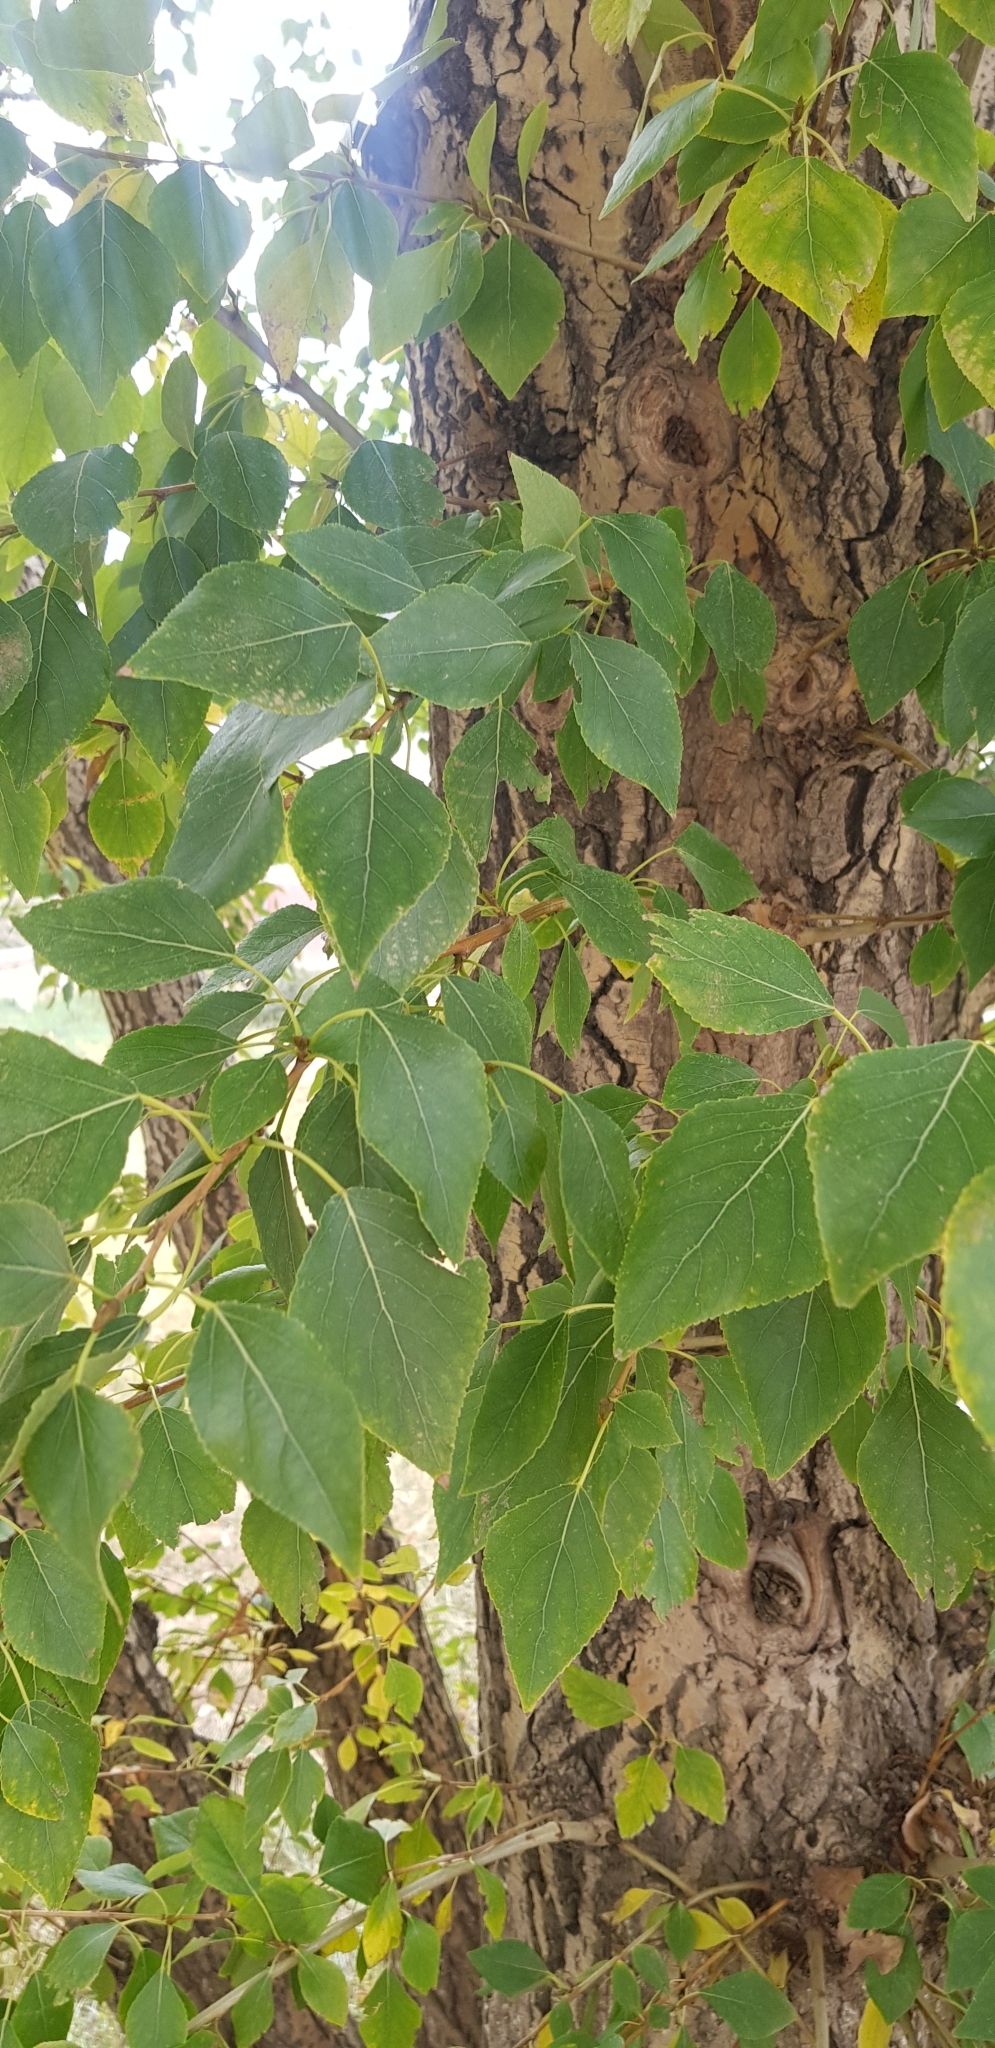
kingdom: Plantae
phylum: Tracheophyta
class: Magnoliopsida
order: Malpighiales
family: Salicaceae
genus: Populus
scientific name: Populus laurifolia
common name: Laurel-leaf poplar
